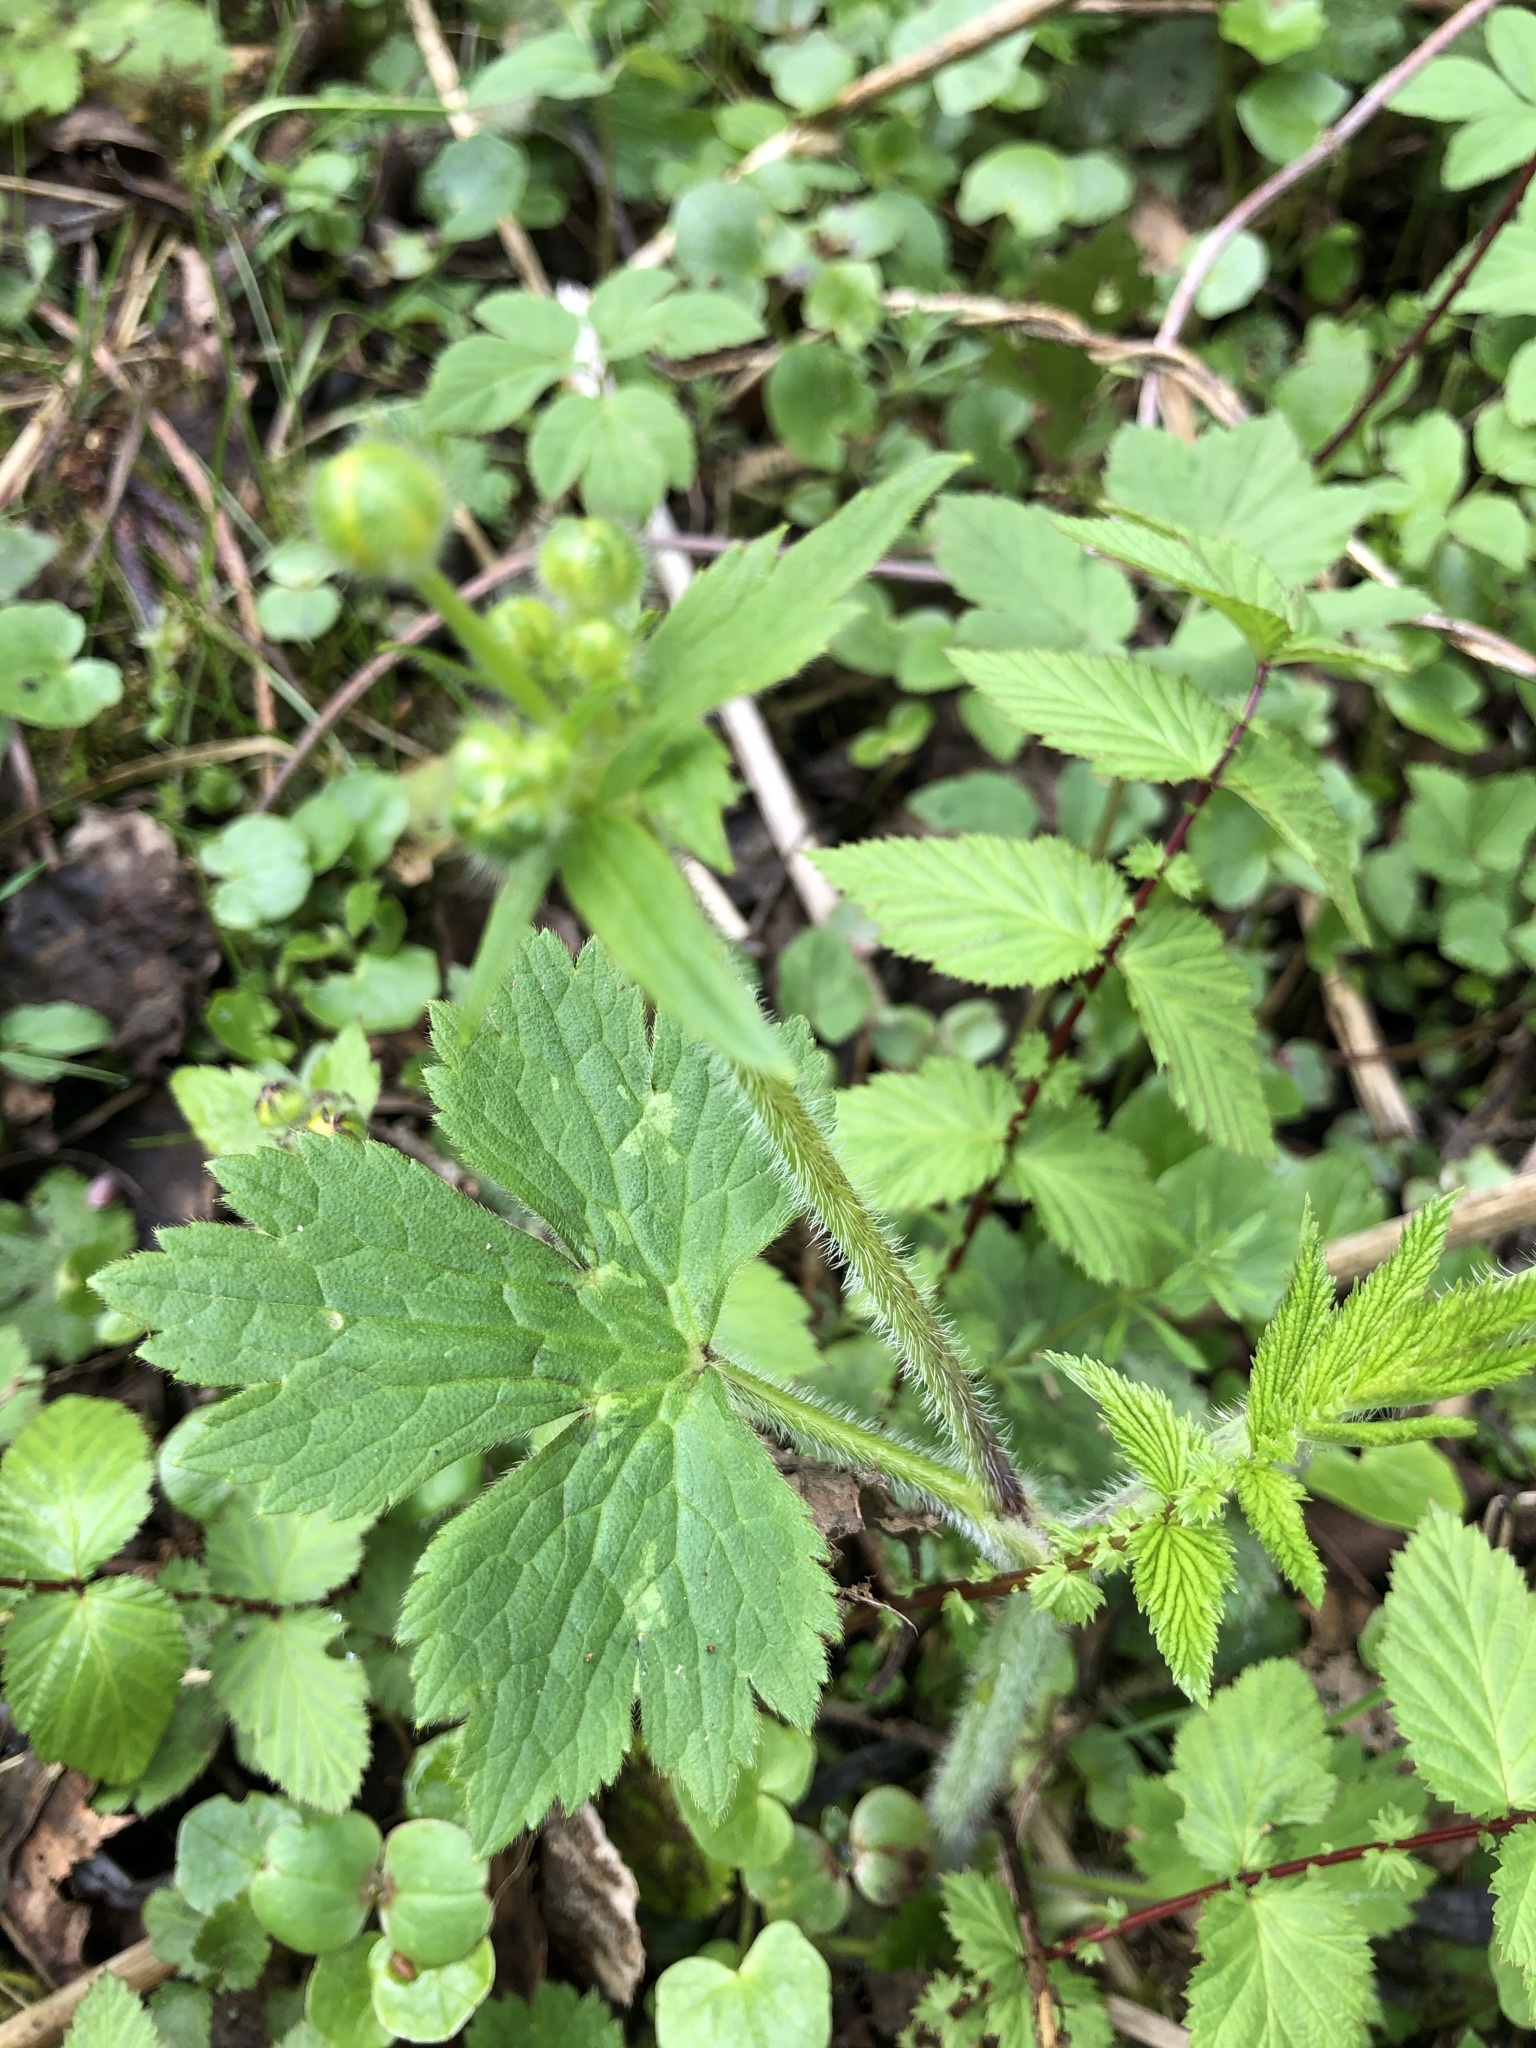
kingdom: Plantae
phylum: Tracheophyta
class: Magnoliopsida
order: Ranunculales
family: Ranunculaceae
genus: Ranunculus
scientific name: Ranunculus lanuginosus
